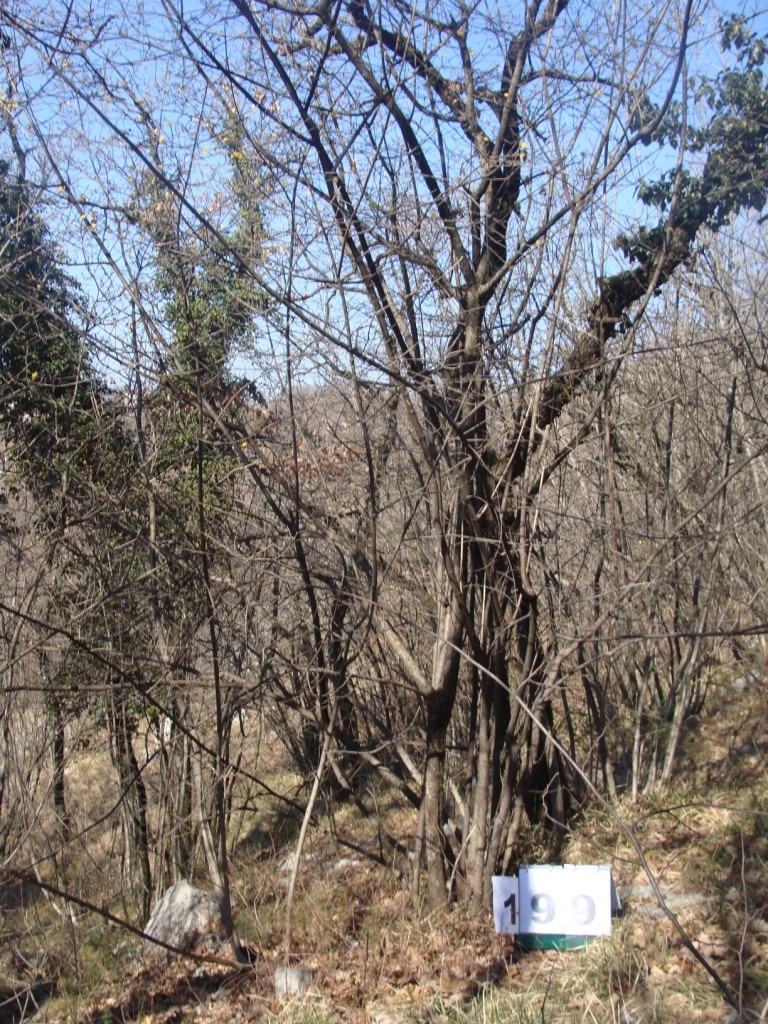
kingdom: Plantae
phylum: Tracheophyta
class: Magnoliopsida
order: Cornales
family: Cornaceae
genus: Cornus
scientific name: Cornus mas
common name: Cornelian-cherry
